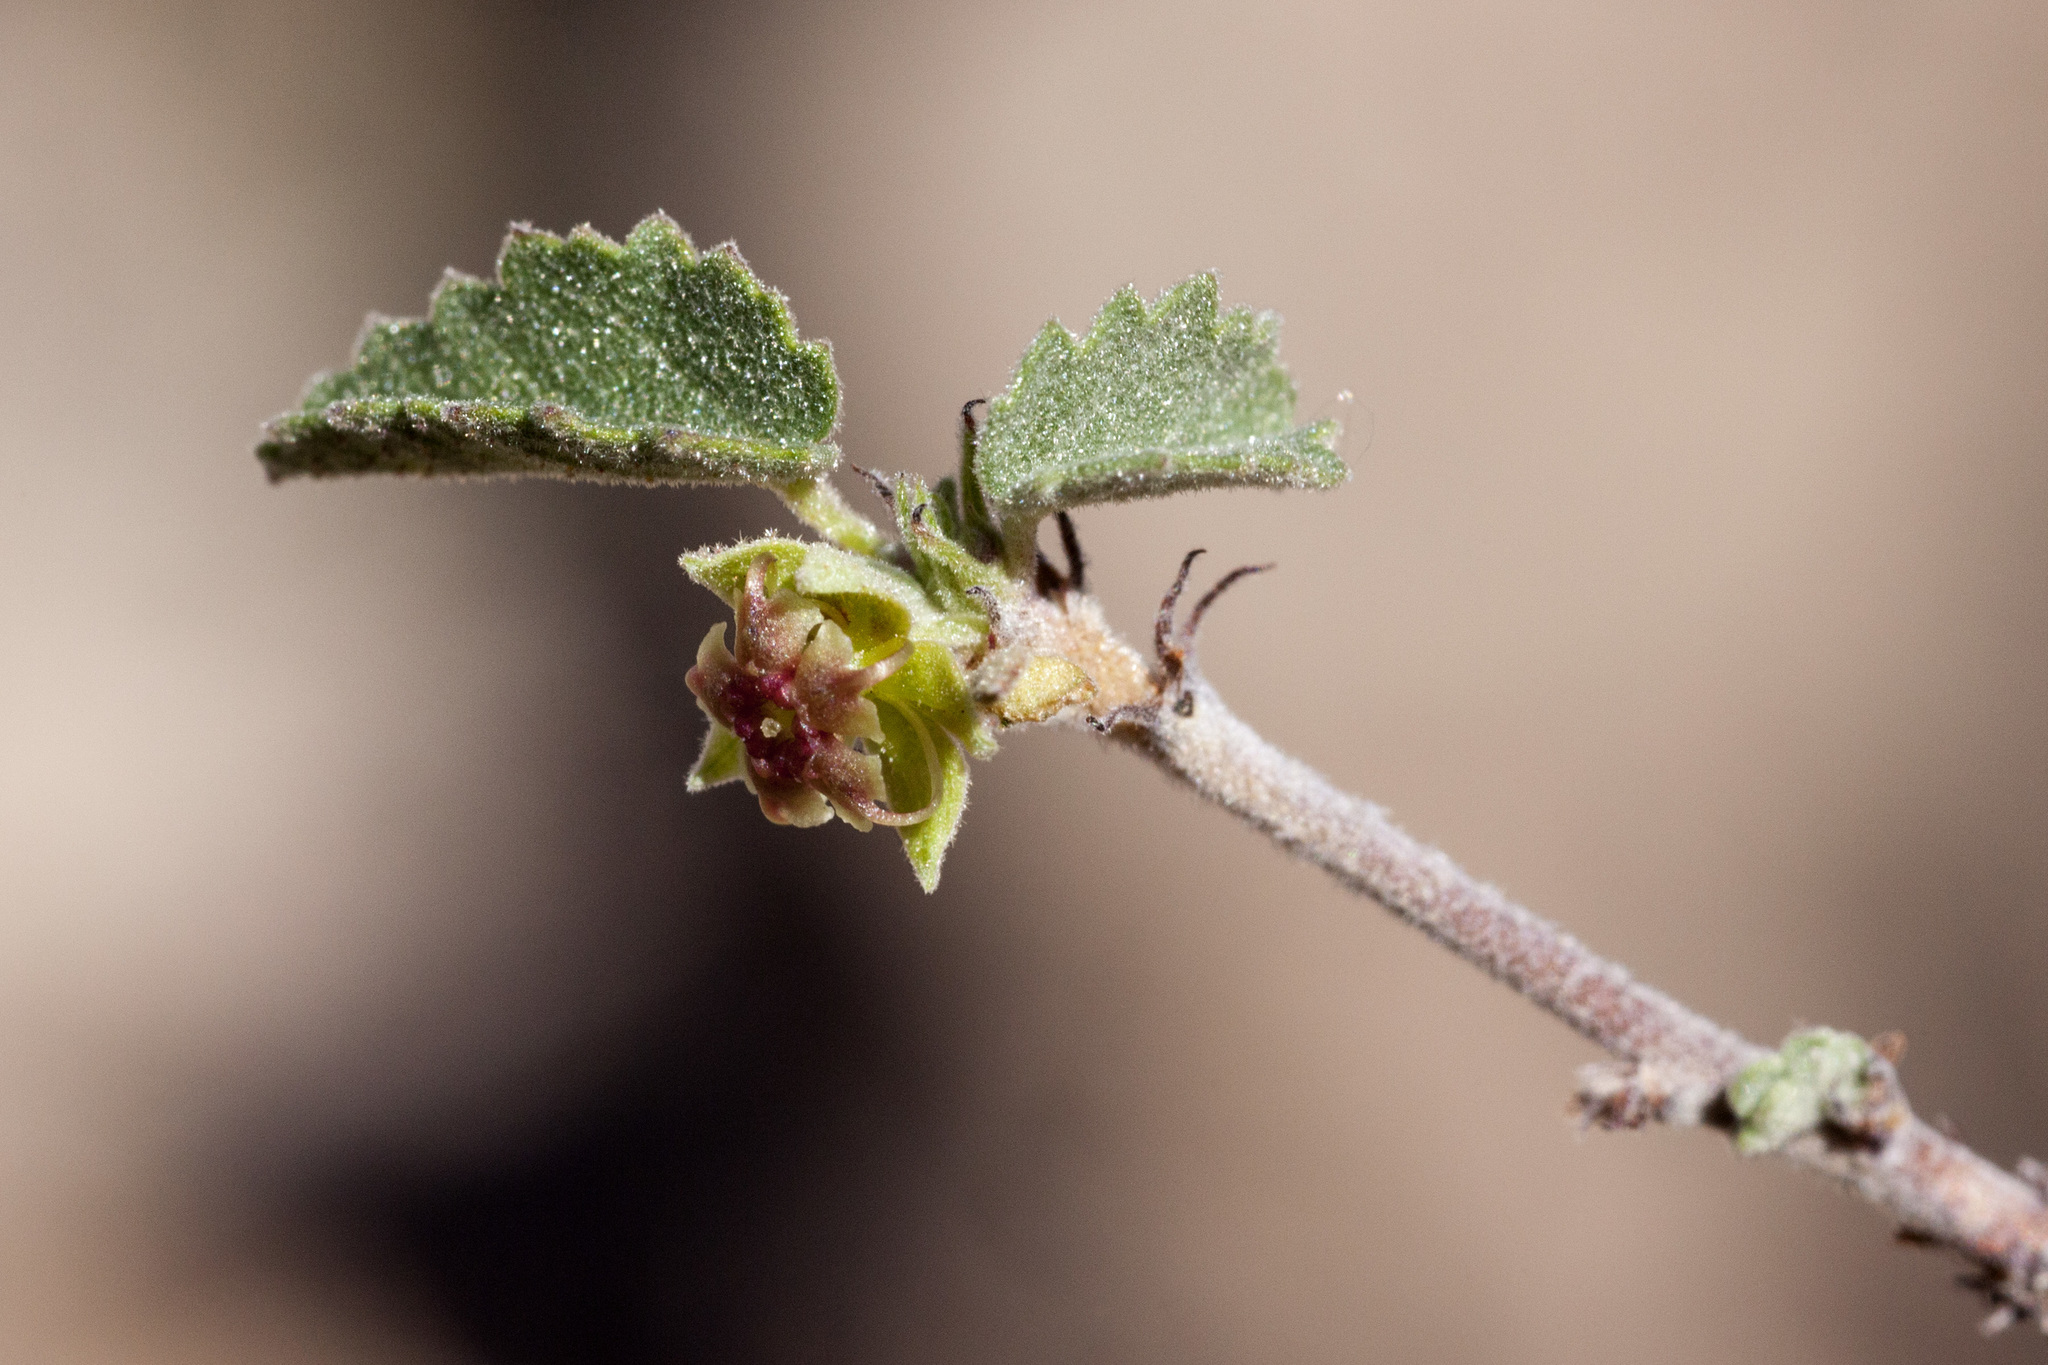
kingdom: Plantae
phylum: Tracheophyta
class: Magnoliopsida
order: Malvales
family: Malvaceae
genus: Ayenia
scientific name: Ayenia microphylla
